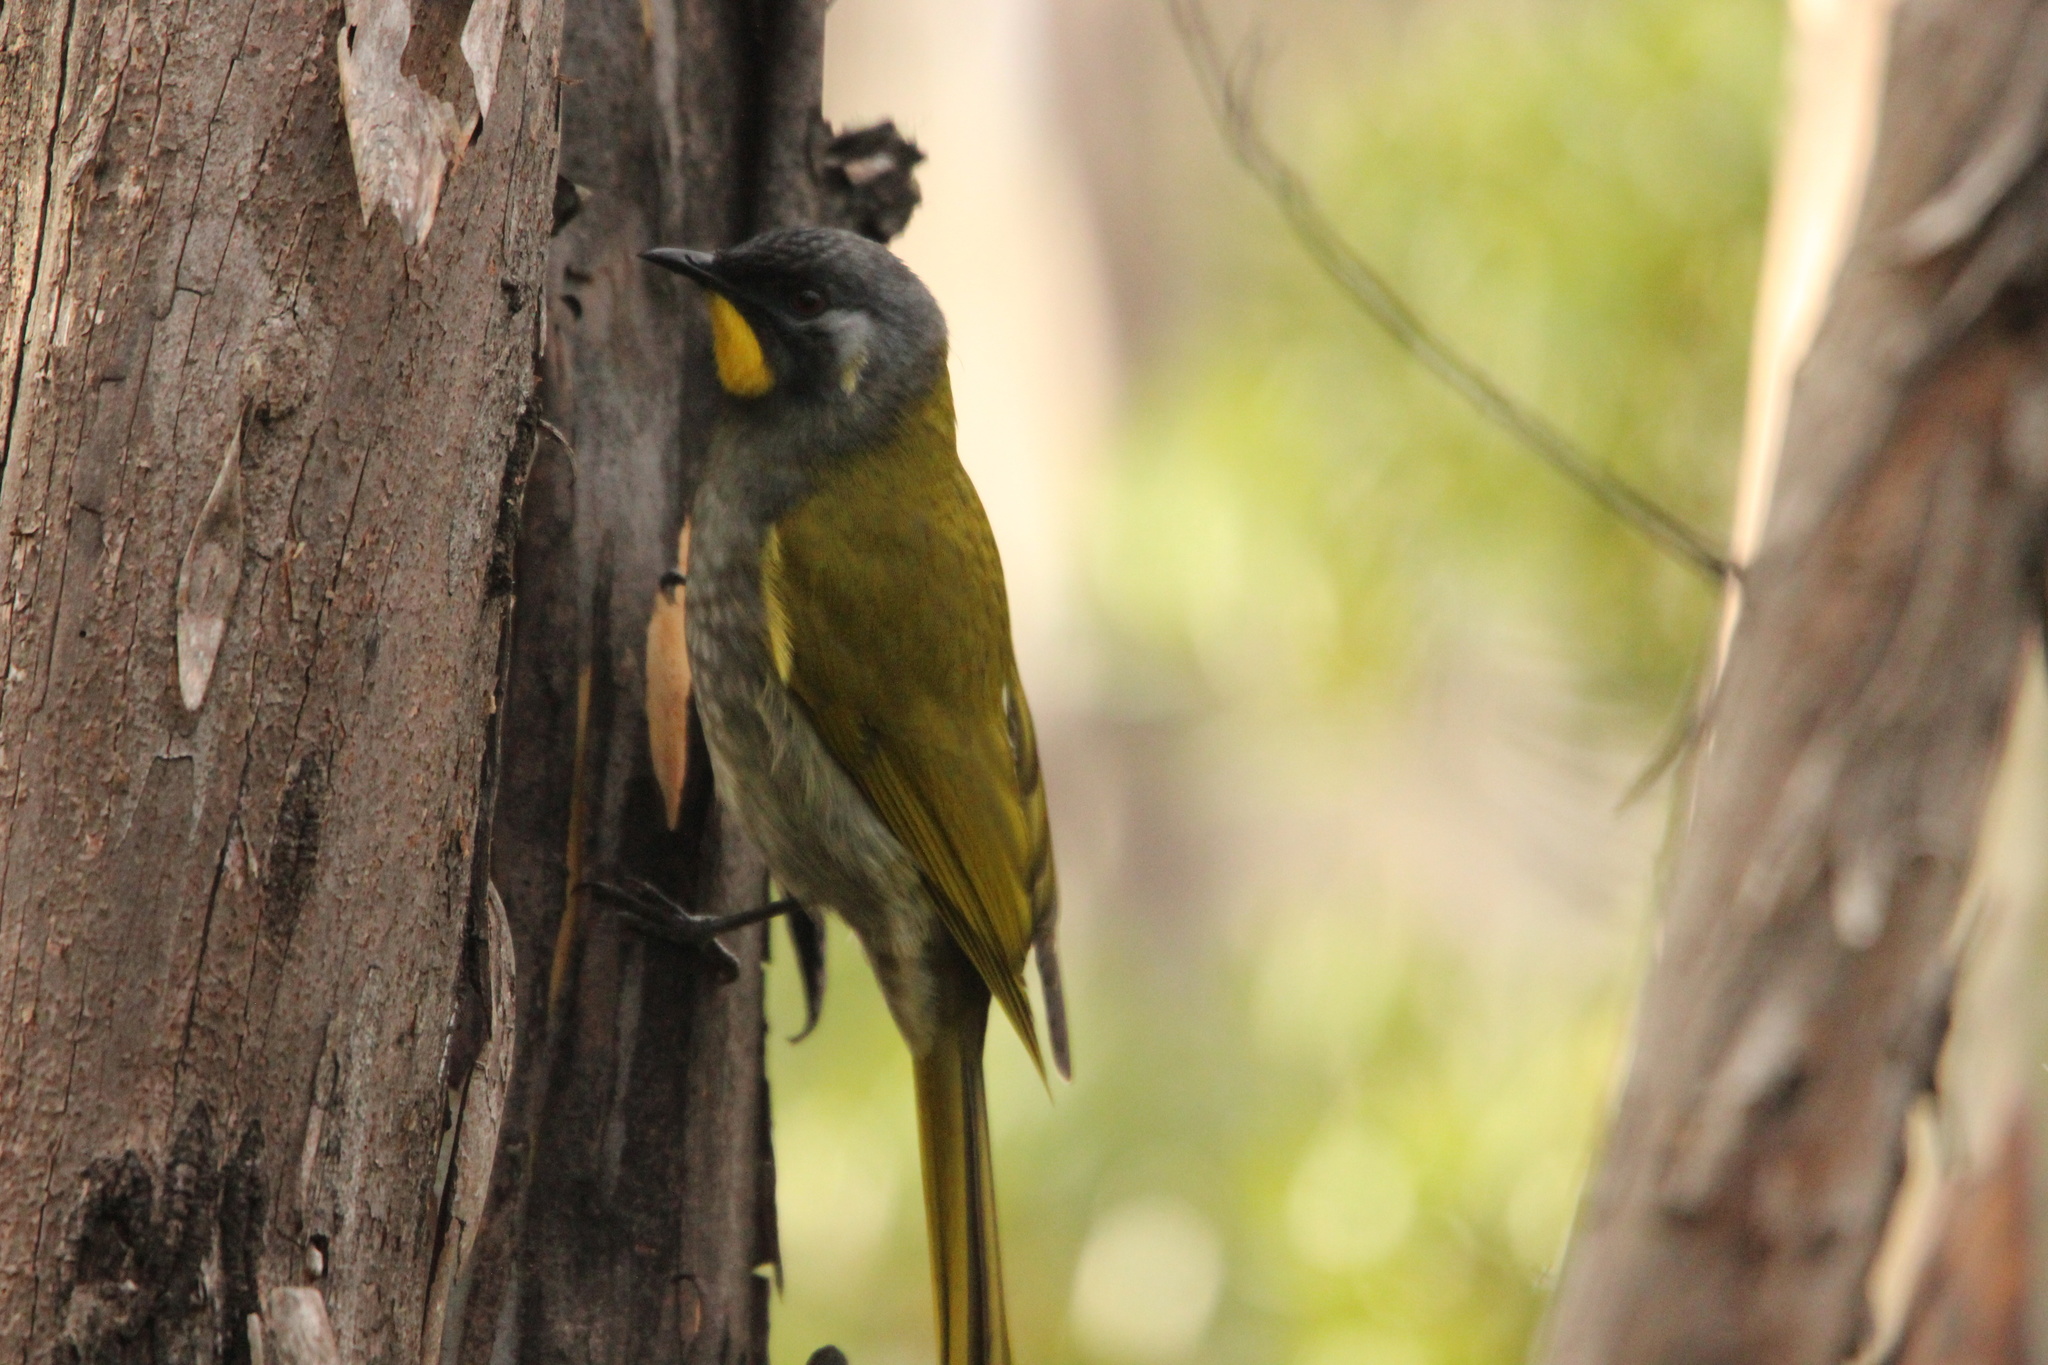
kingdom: Animalia
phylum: Chordata
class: Aves
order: Passeriformes
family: Meliphagidae
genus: Nesoptilotis
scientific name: Nesoptilotis flavicollis
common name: Yellow-throated honeyeater
